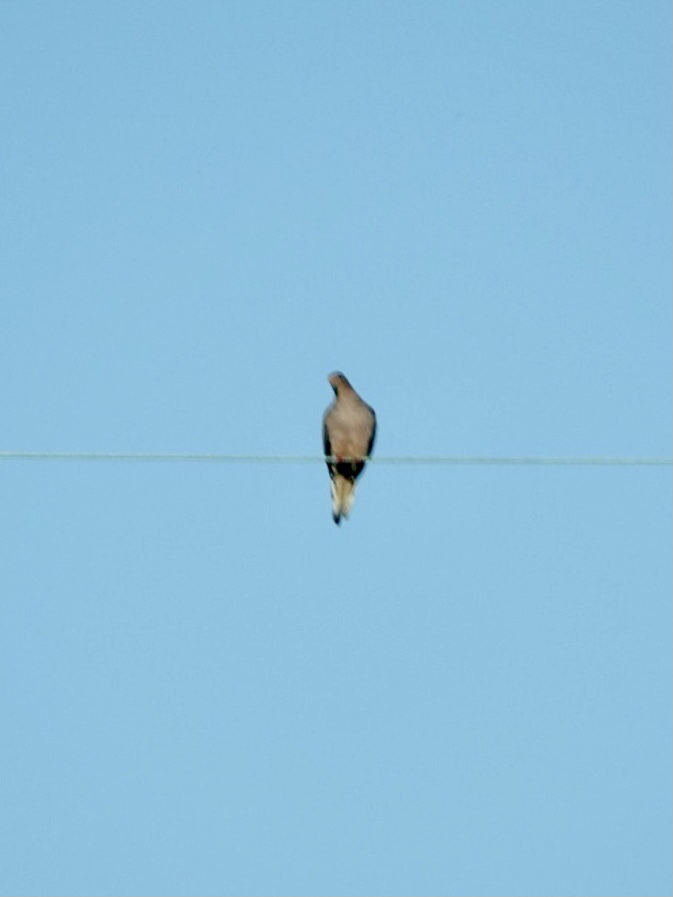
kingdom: Animalia
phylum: Chordata
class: Aves
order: Columbiformes
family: Columbidae
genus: Zenaida
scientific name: Zenaida macroura
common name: Mourning dove
